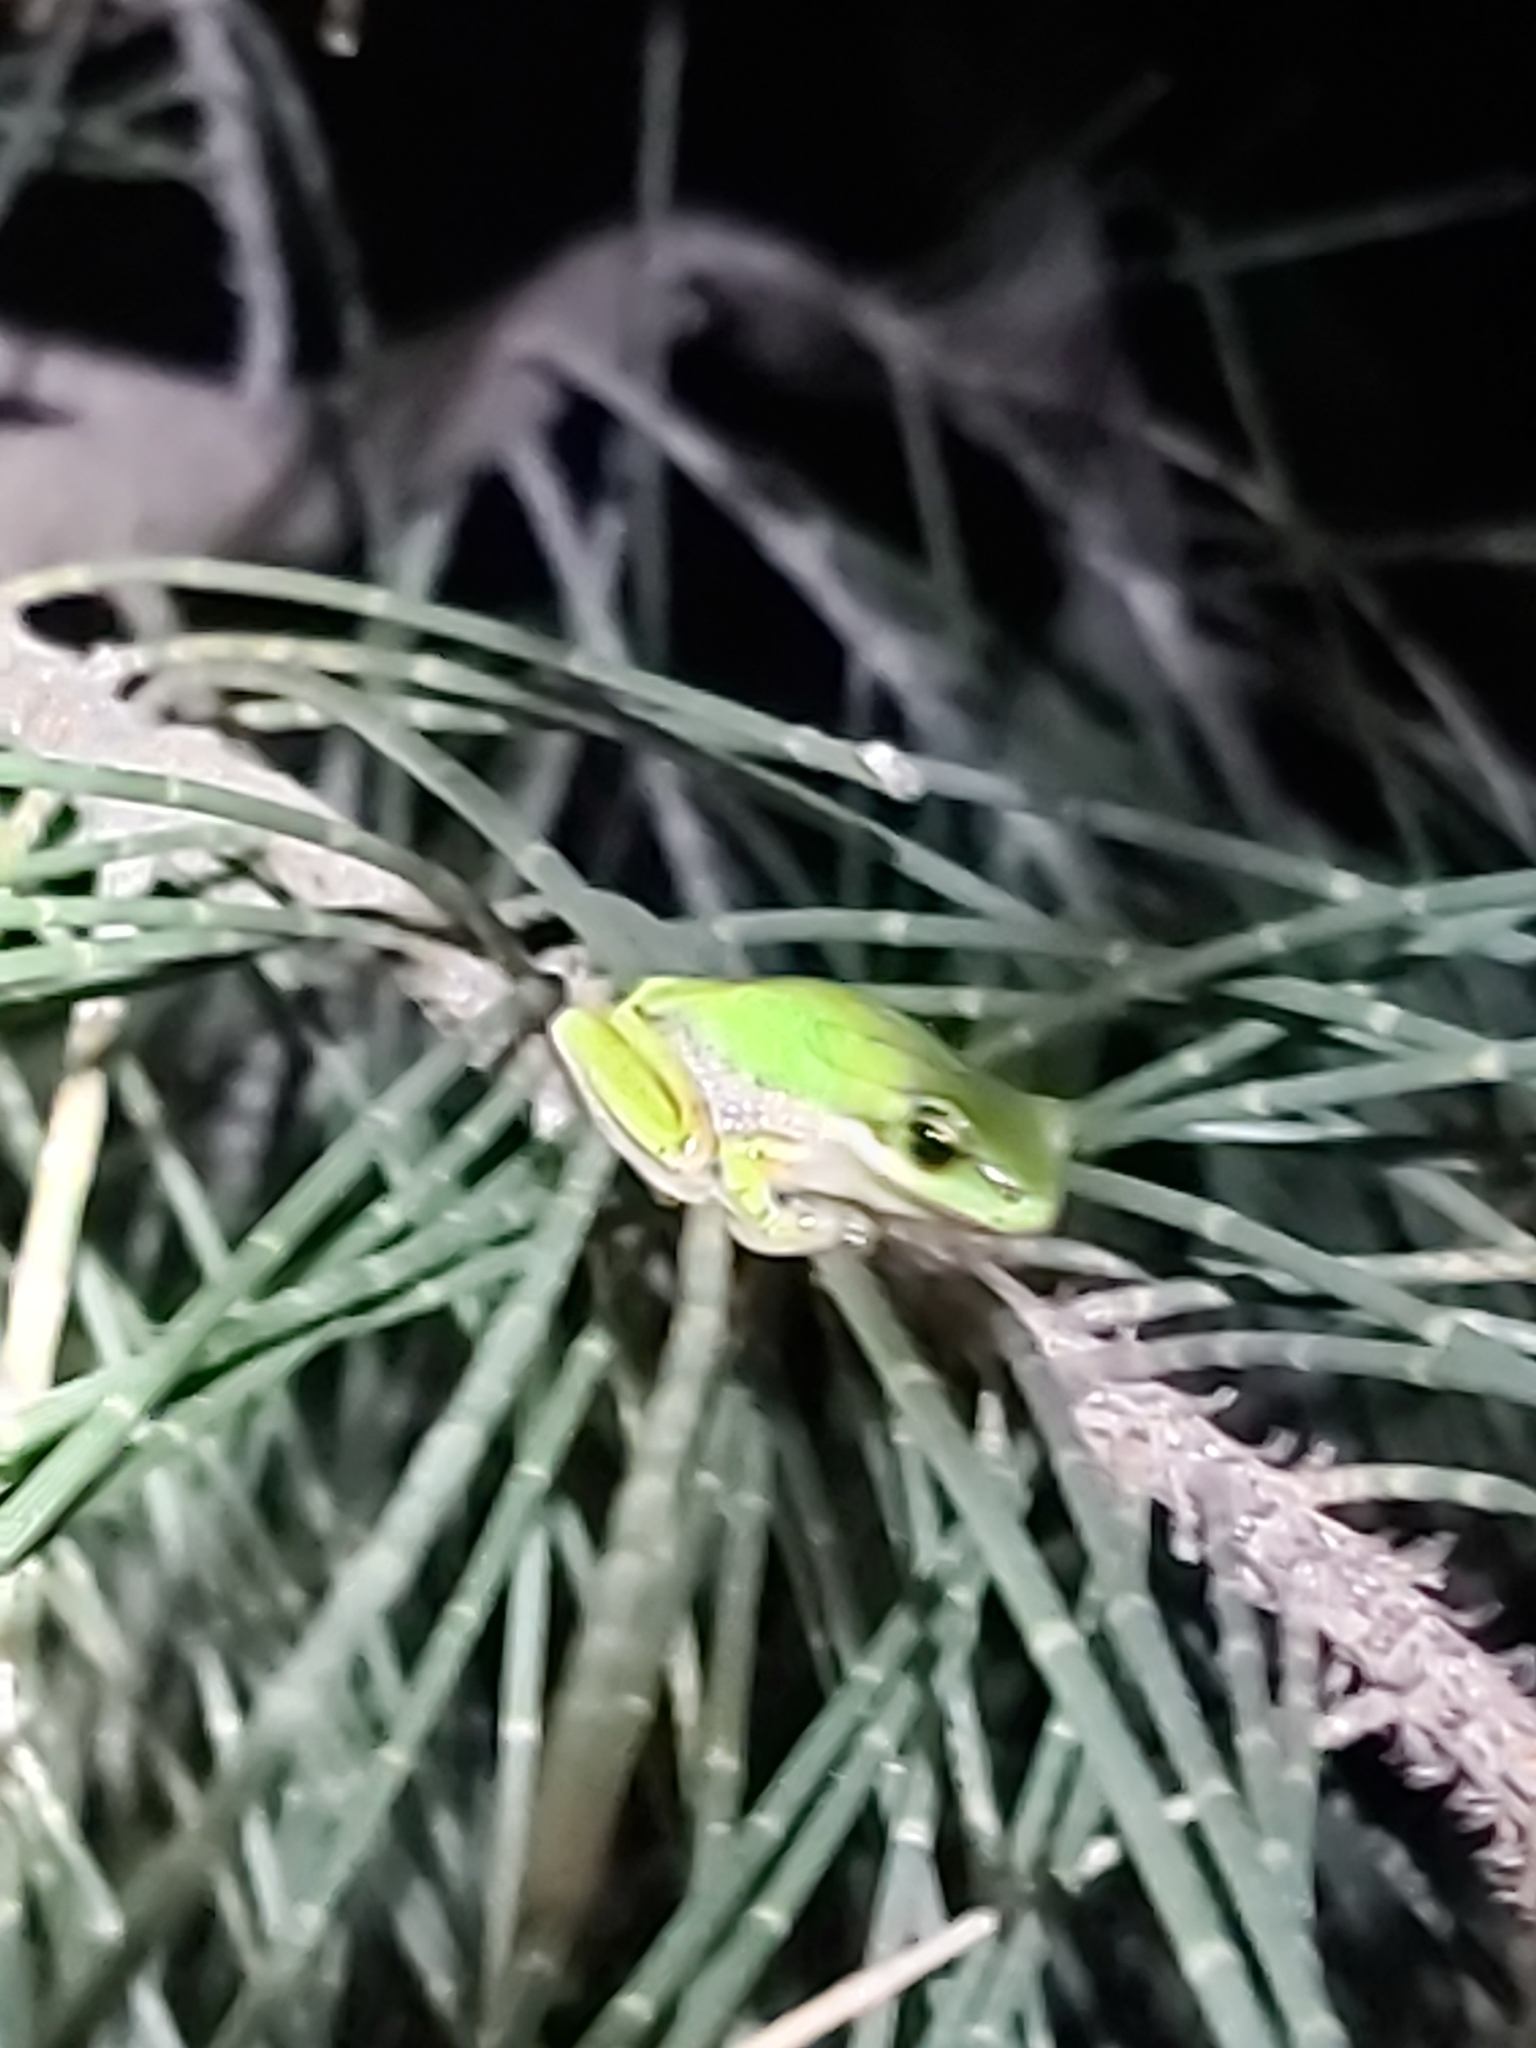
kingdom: Animalia
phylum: Chordata
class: Amphibia
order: Anura
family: Pelodryadidae
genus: Litoria
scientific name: Litoria fallax
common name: Eastern dwarf treefrog
